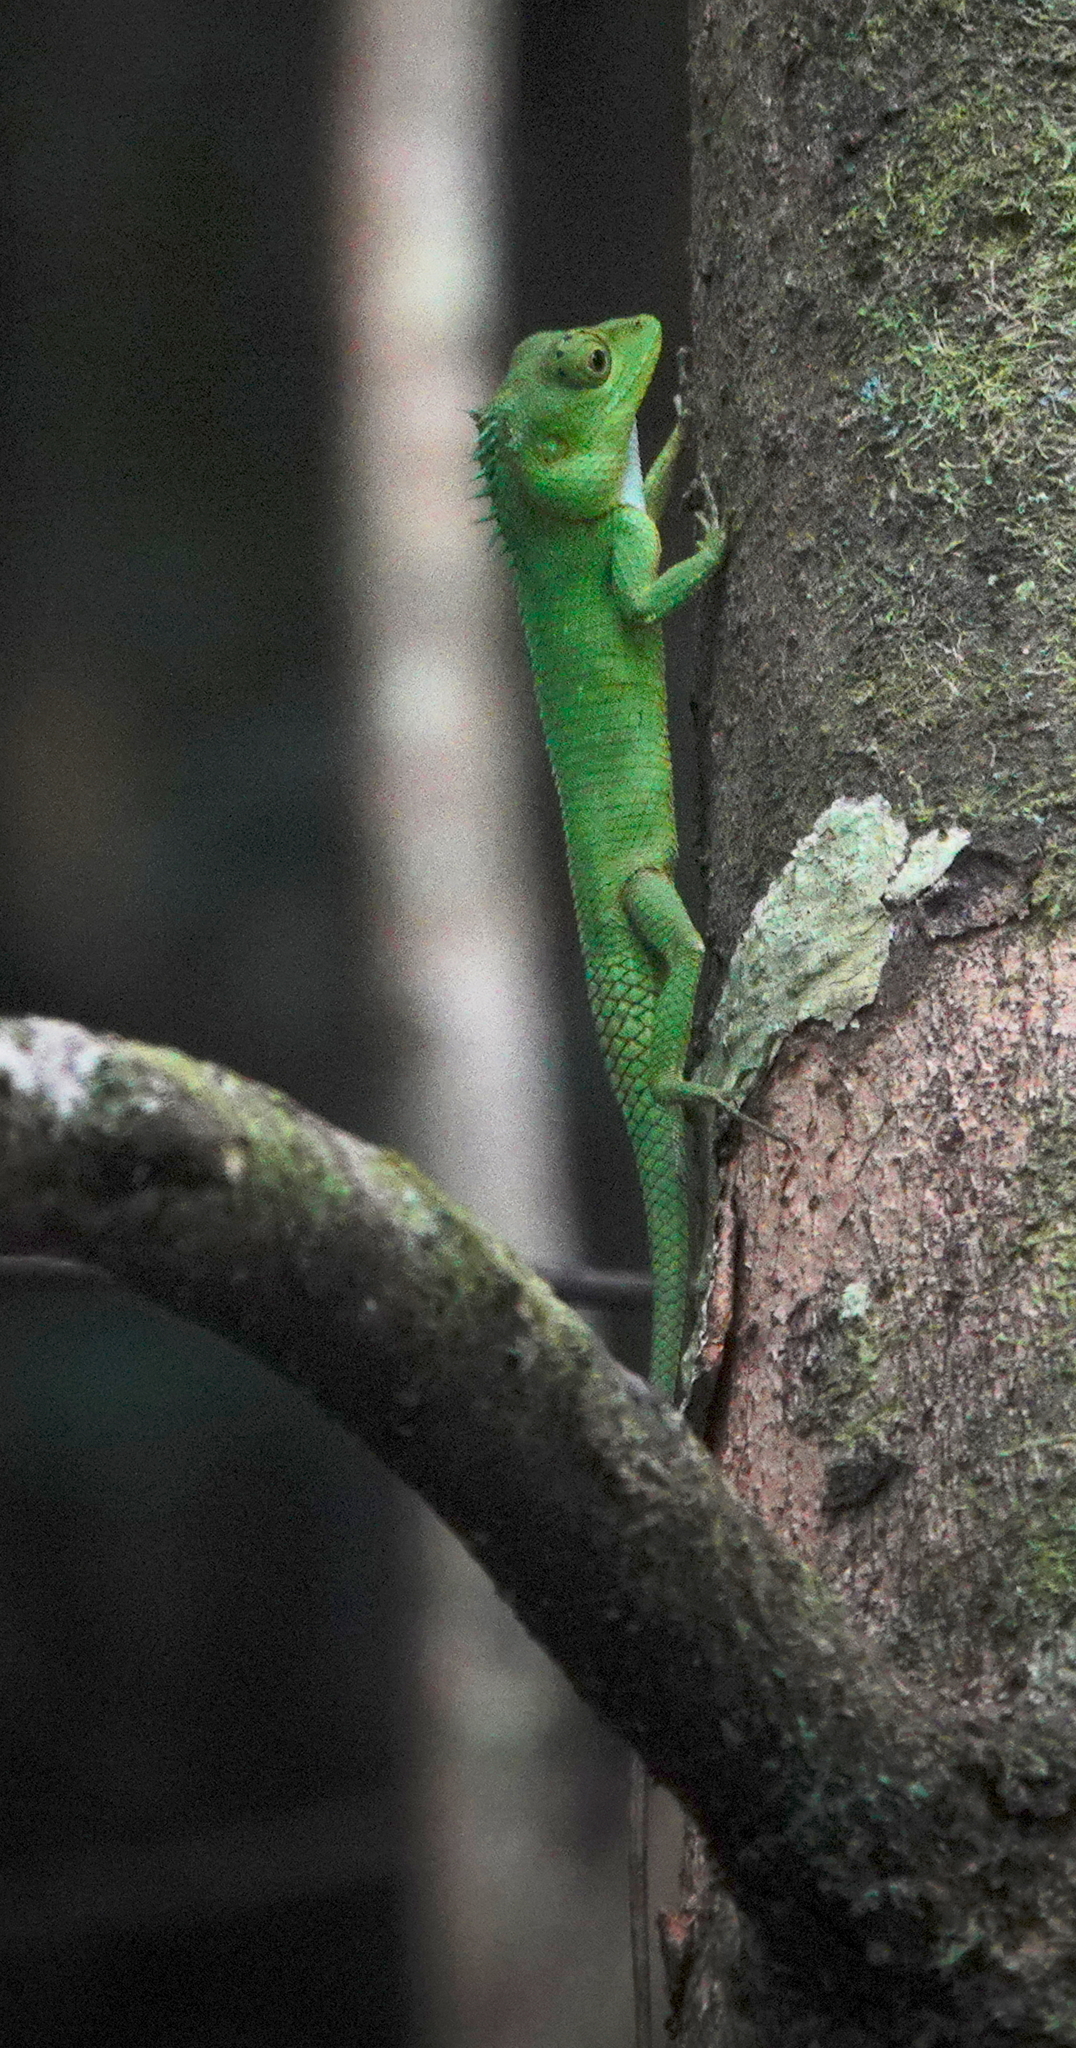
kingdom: Animalia
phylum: Chordata
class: Squamata
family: Agamidae
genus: Calotes
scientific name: Calotes liolepis
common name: Sri lanka agama
